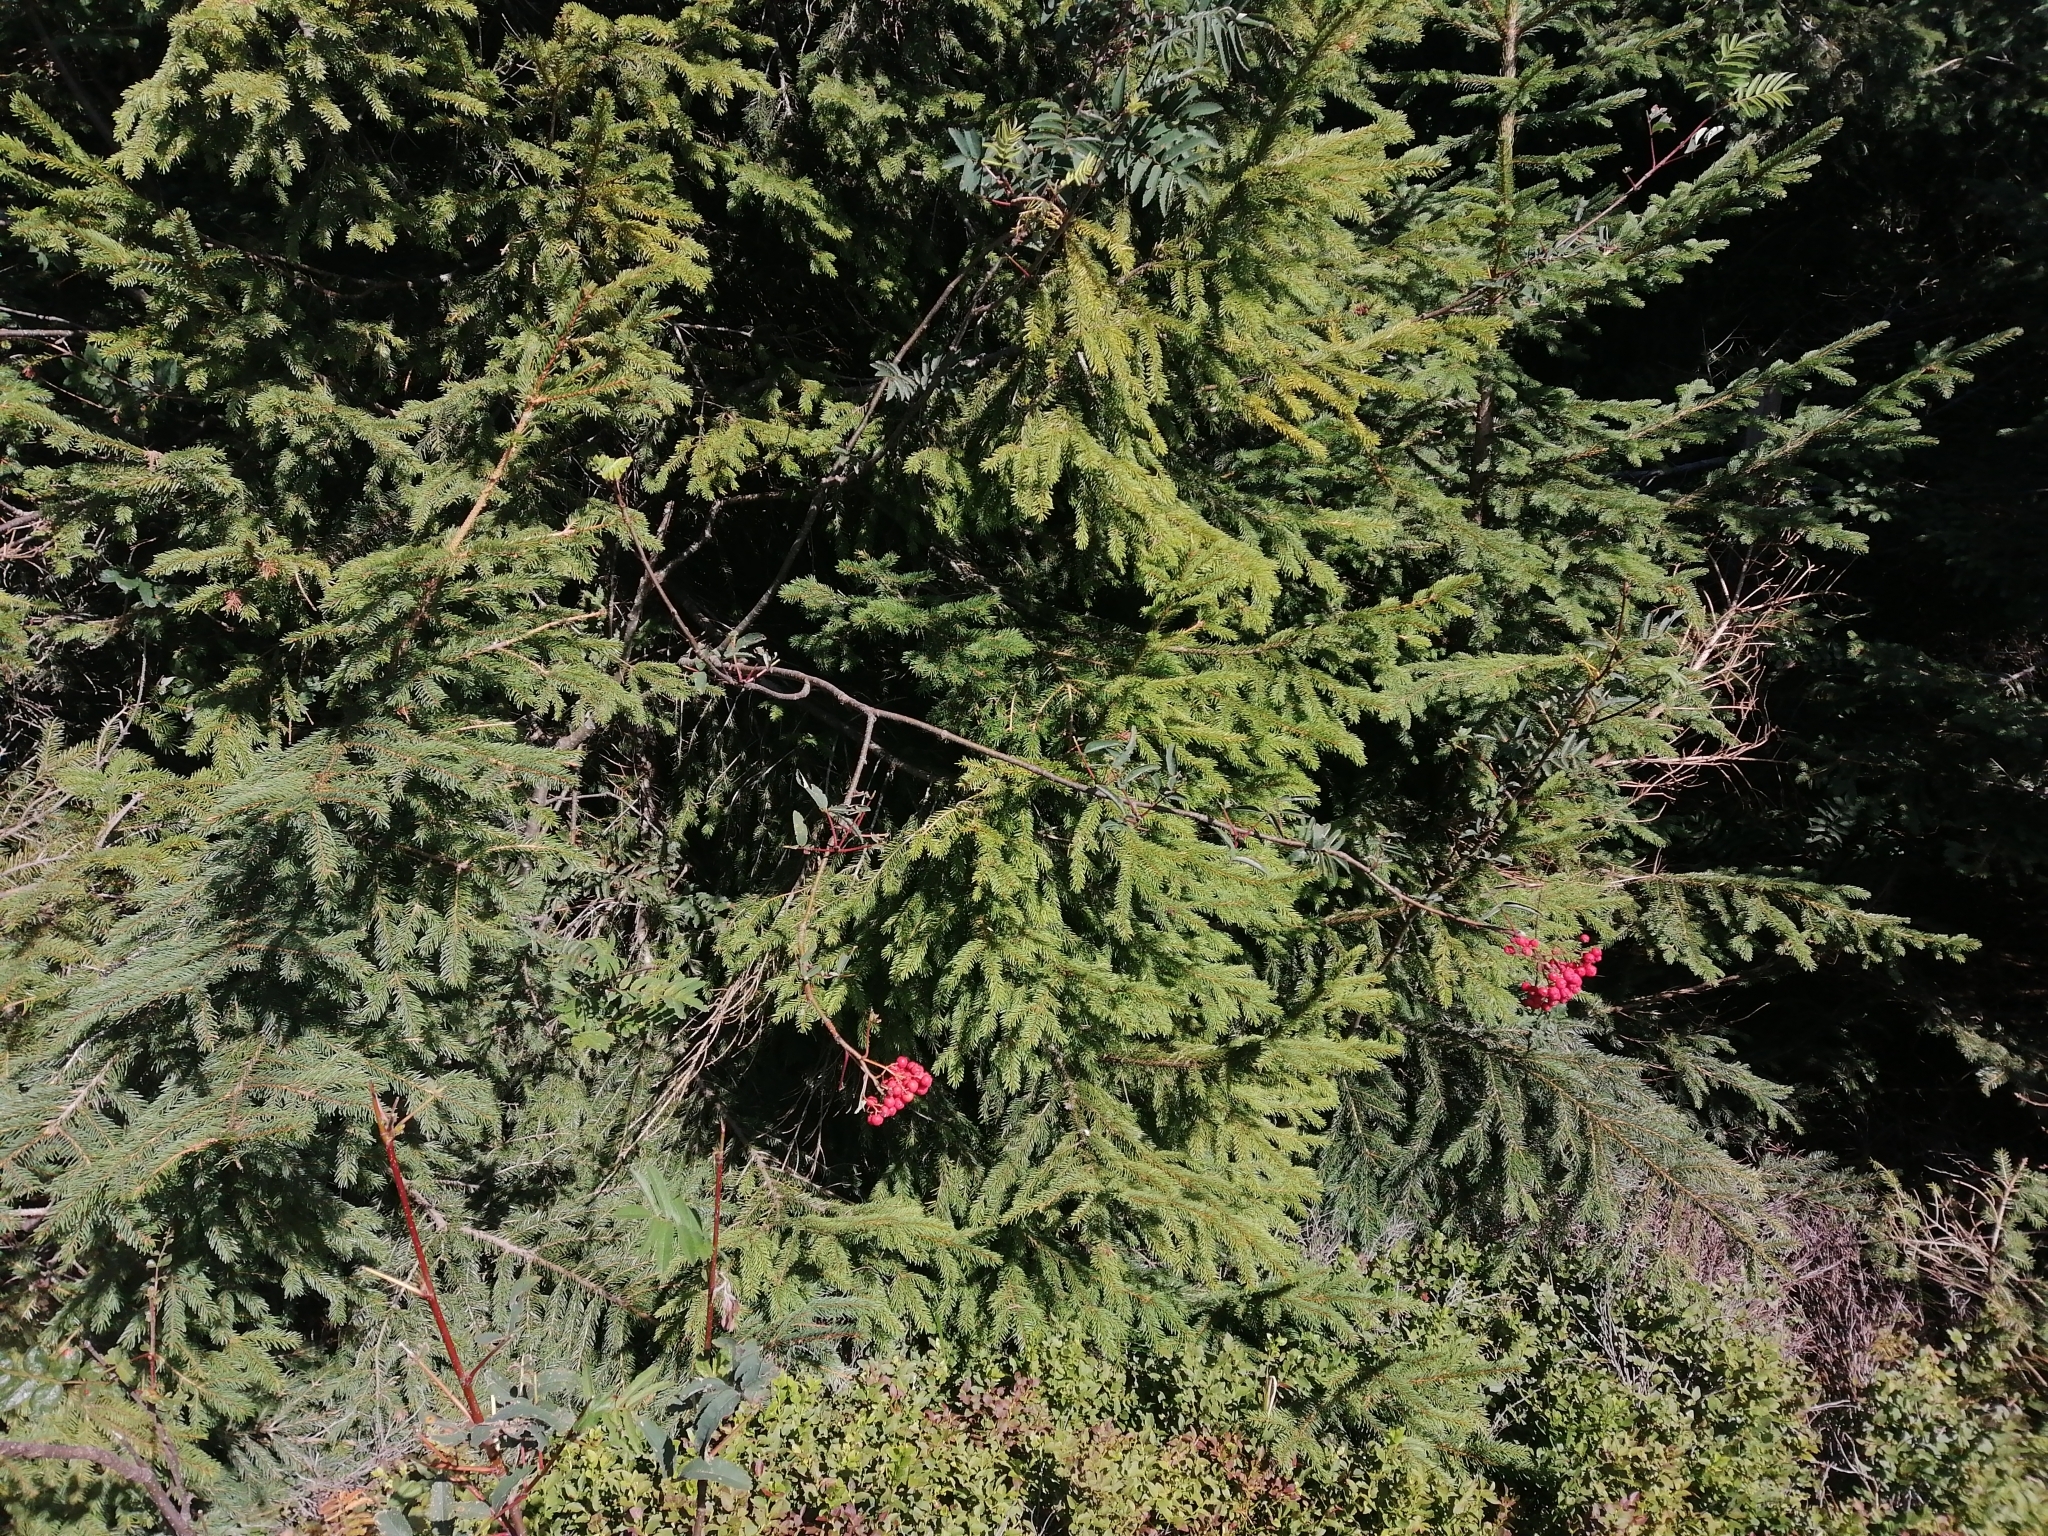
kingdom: Plantae
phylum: Tracheophyta
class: Magnoliopsida
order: Rosales
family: Rosaceae
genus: Sorbus
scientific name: Sorbus aucuparia
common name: Rowan
